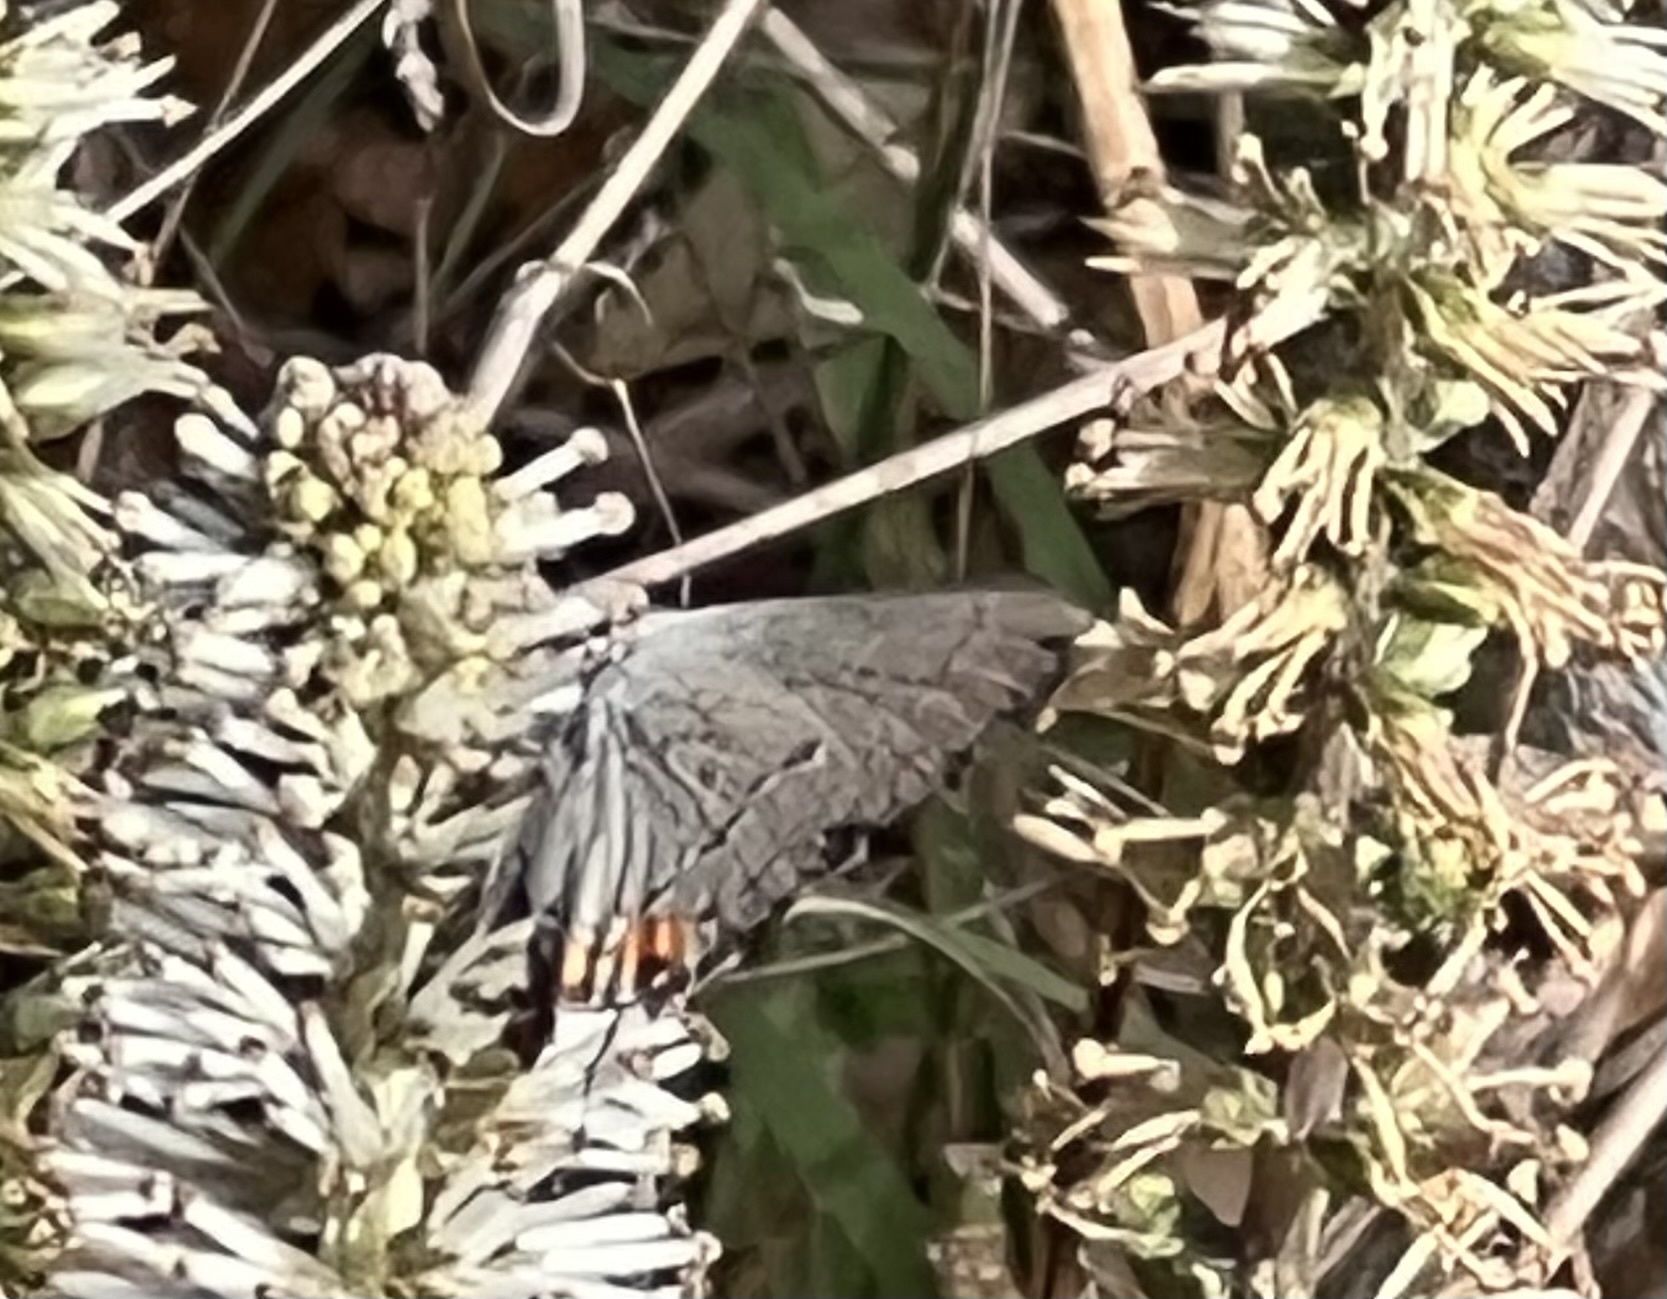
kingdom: Animalia
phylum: Arthropoda
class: Insecta
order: Lepidoptera
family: Lycaenidae
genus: Strymon
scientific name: Strymon melinus
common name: Gray hairstreak
